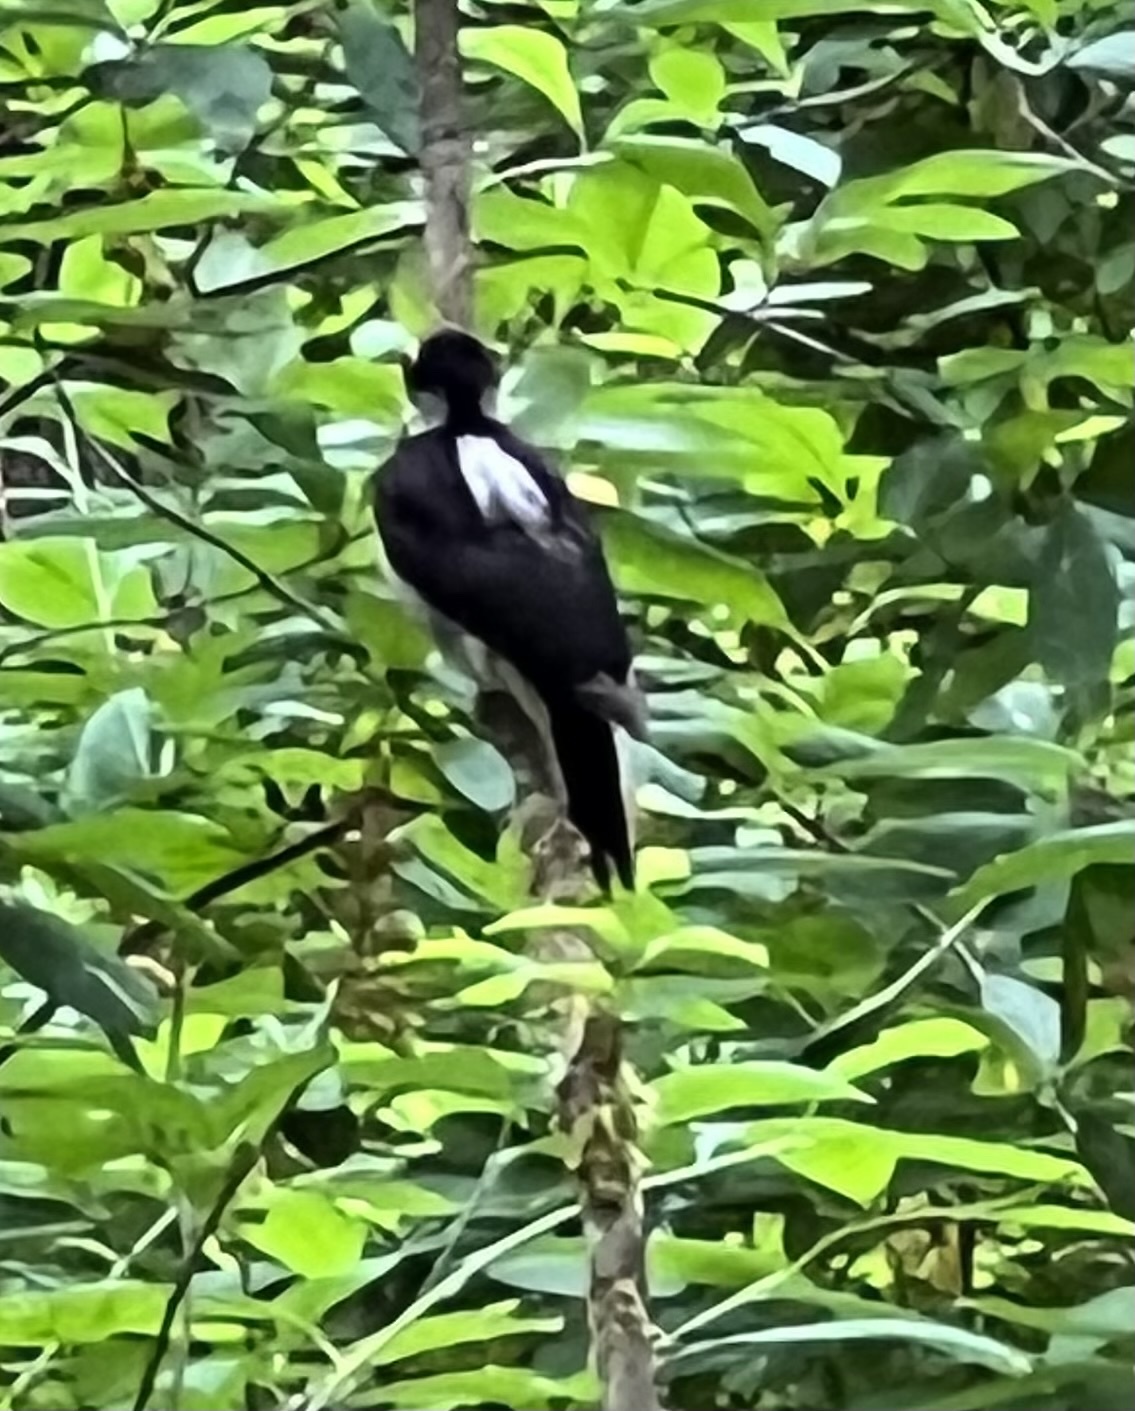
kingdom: Animalia
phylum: Chordata
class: Aves
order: Piciformes
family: Picidae
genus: Leuconotopicus
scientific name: Leuconotopicus villosus
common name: Hairy woodpecker
